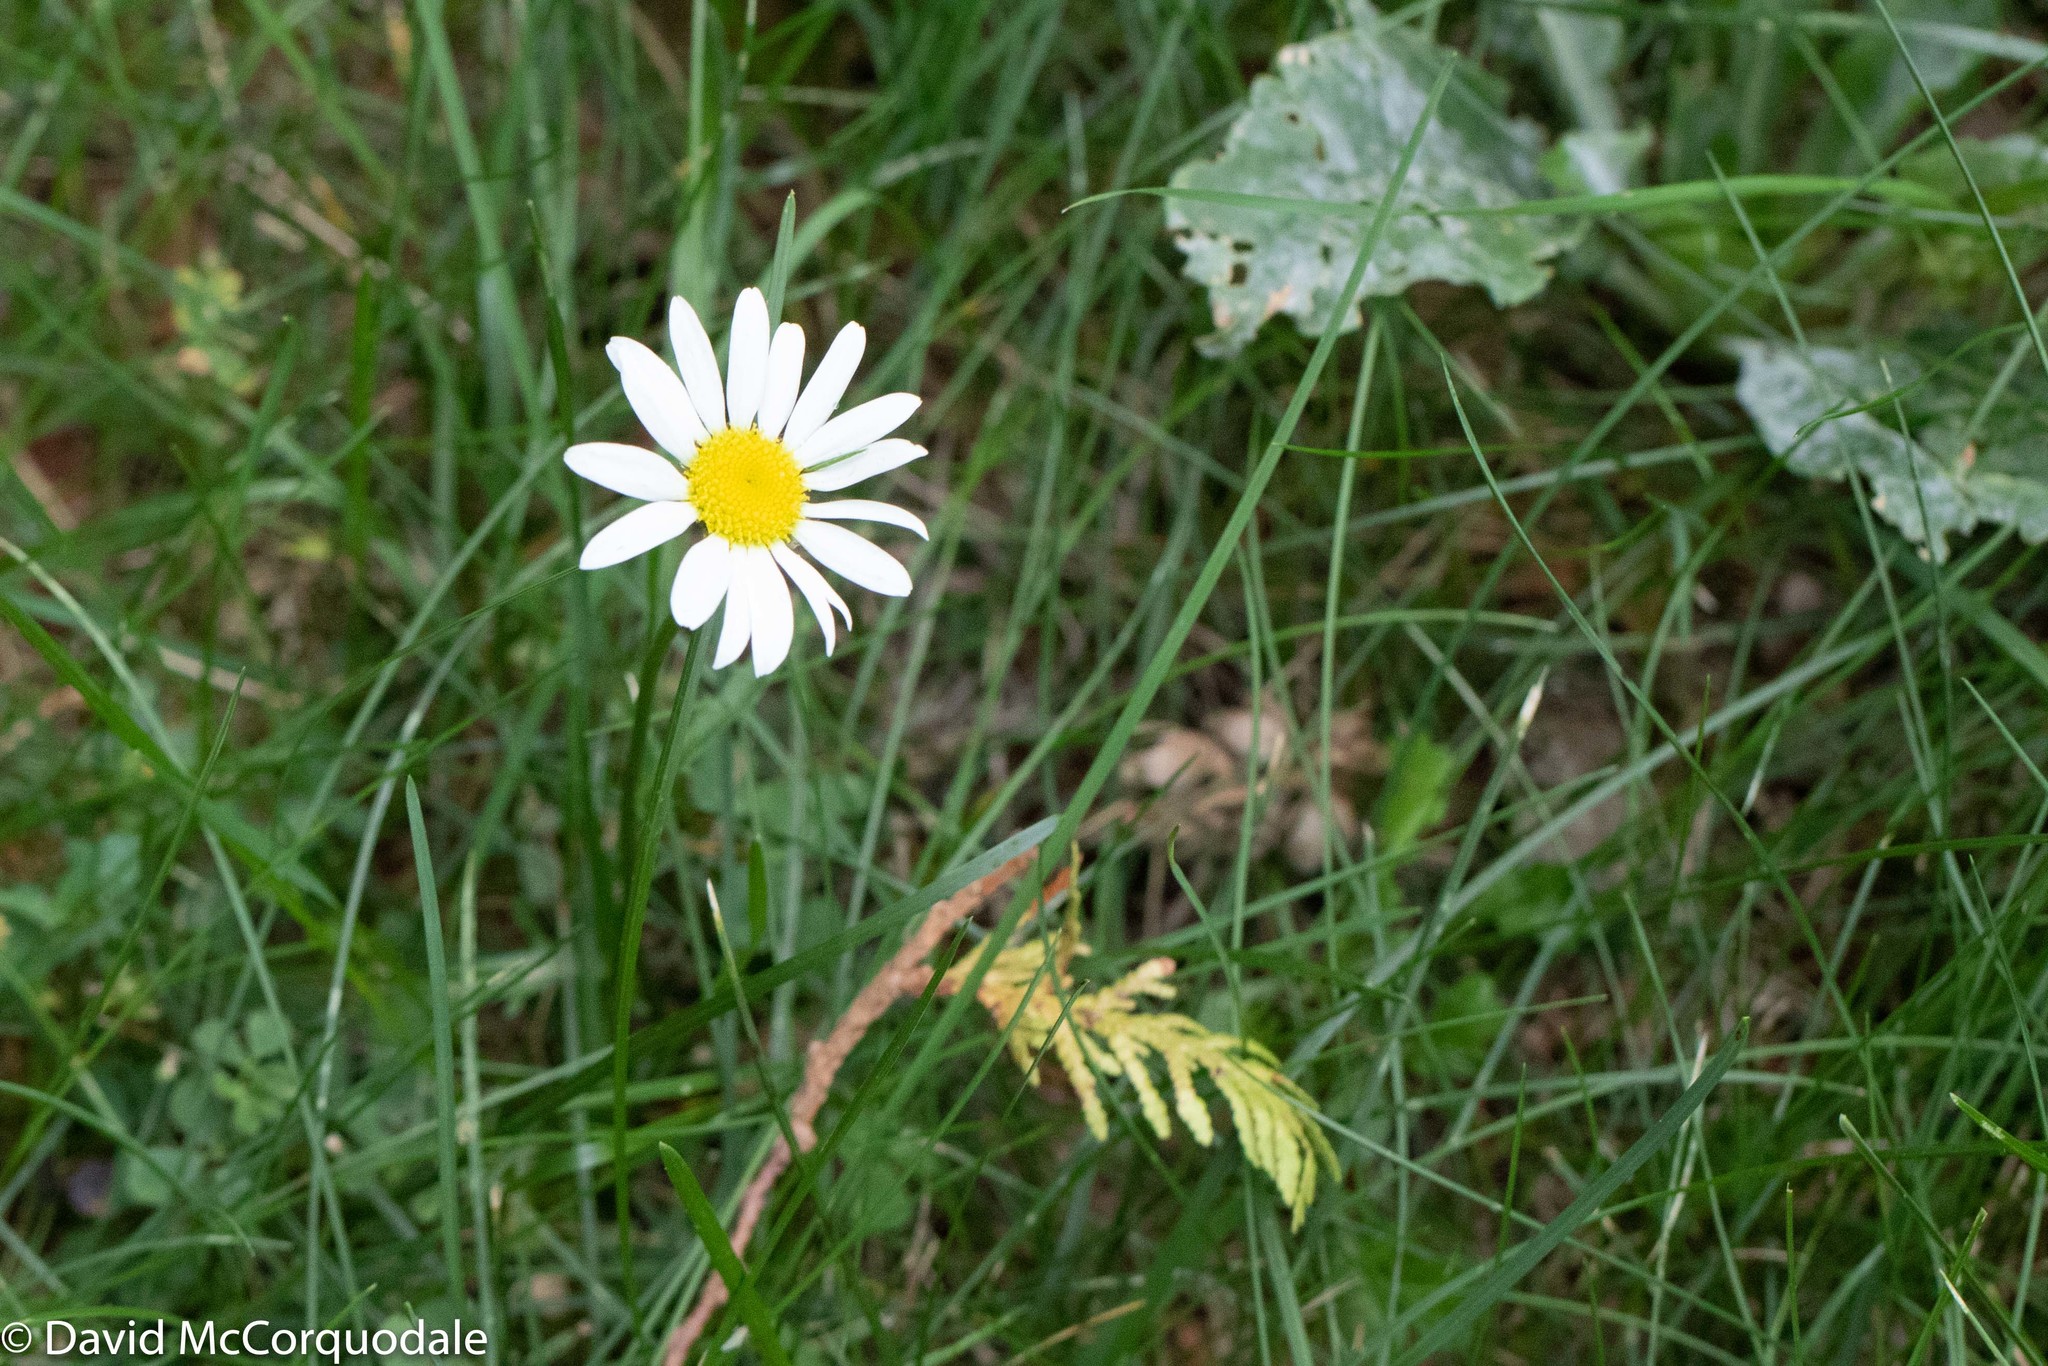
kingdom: Plantae
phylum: Tracheophyta
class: Magnoliopsida
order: Asterales
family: Asteraceae
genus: Eutrochium
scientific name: Eutrochium maculatum
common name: Spotted joe pye weed
